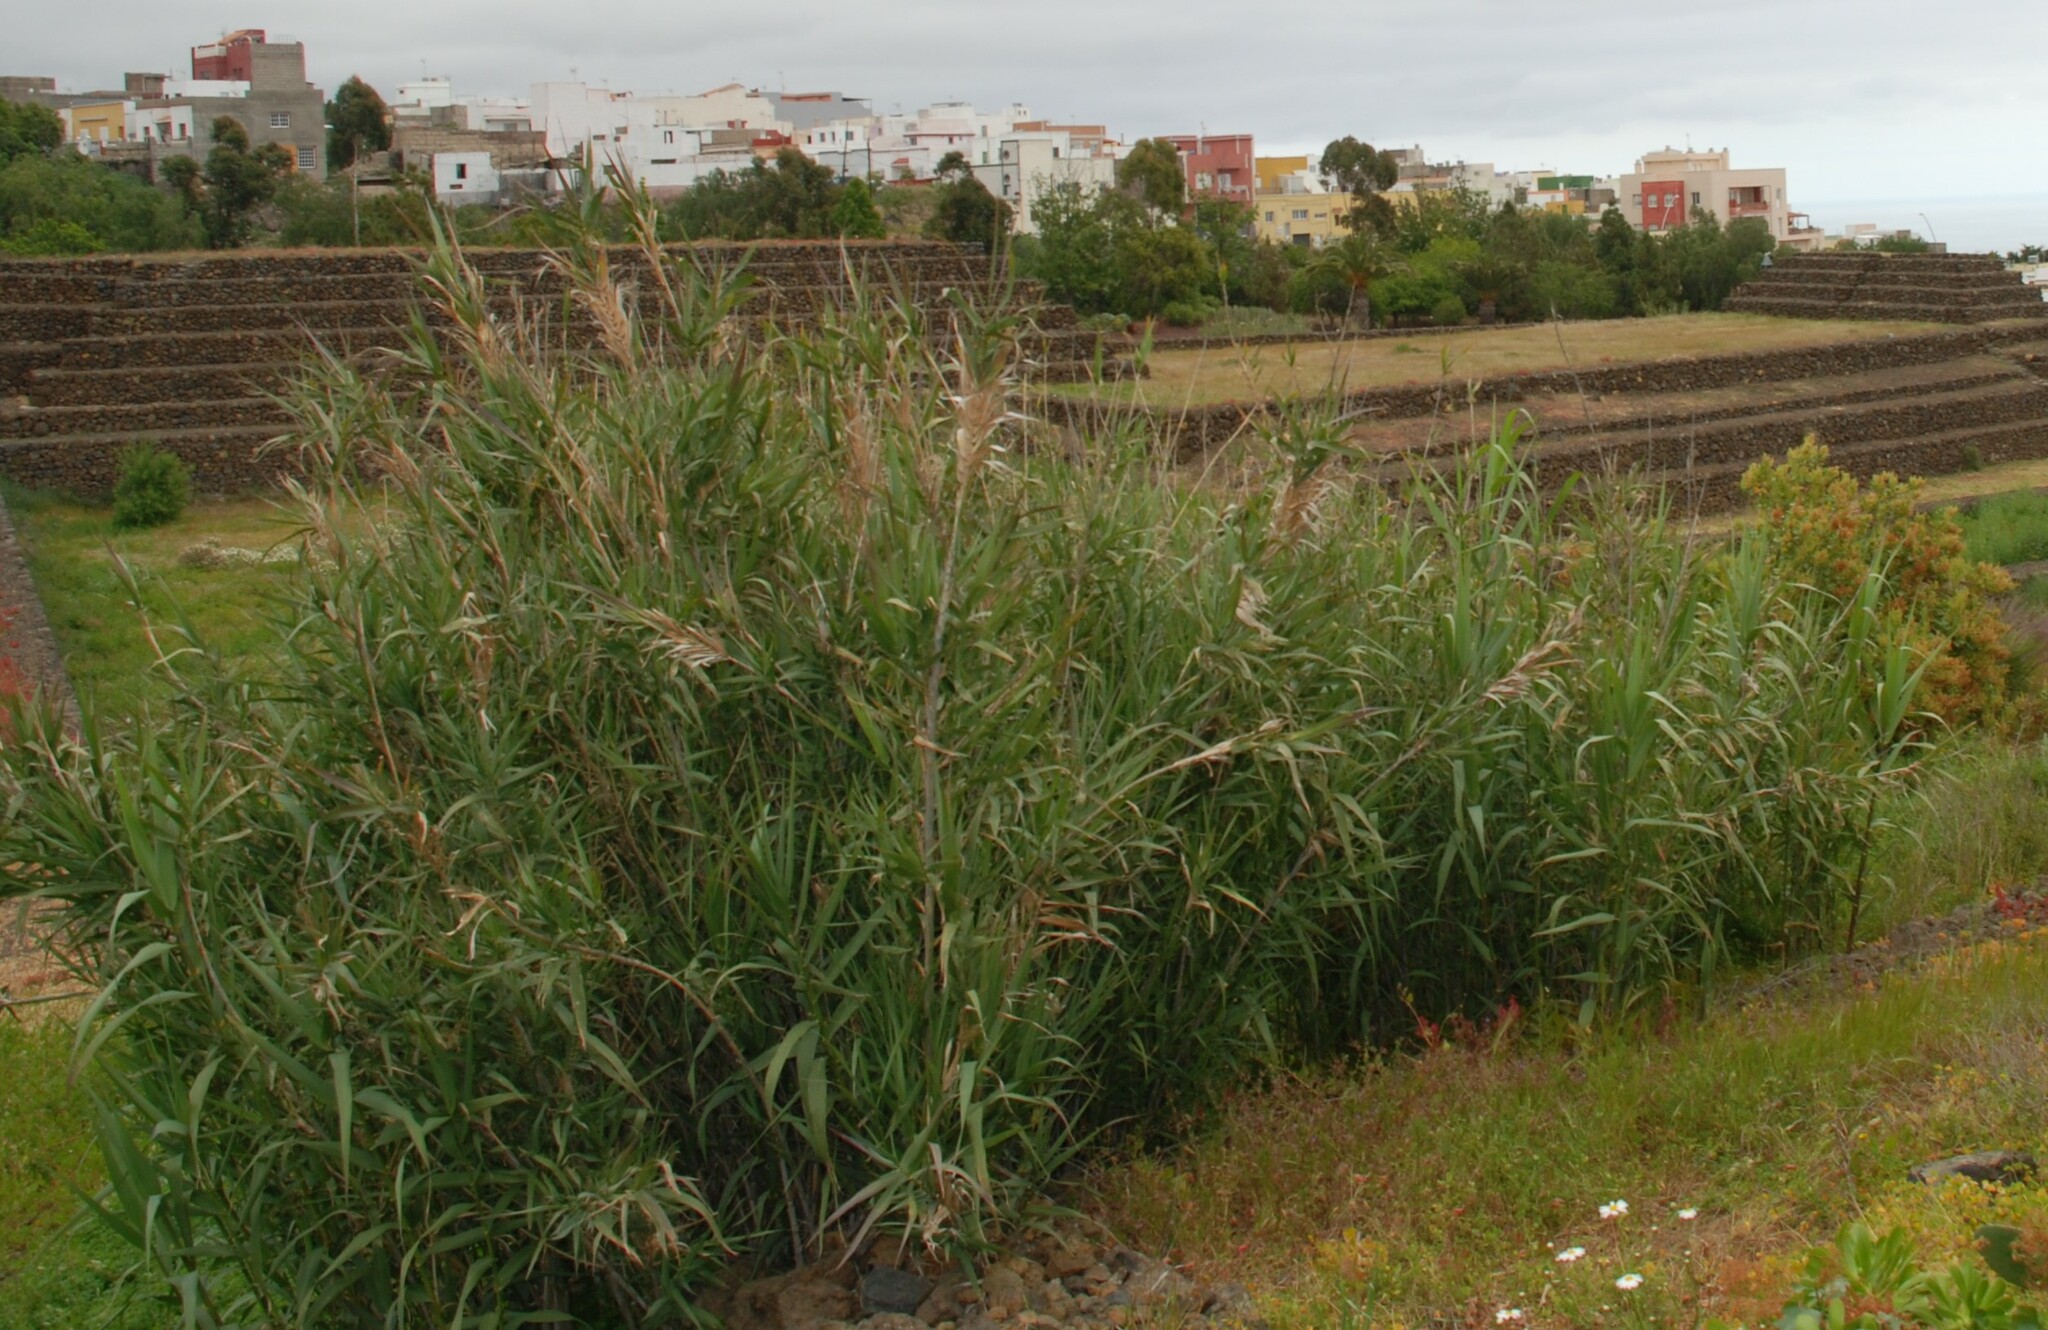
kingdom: Plantae
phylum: Tracheophyta
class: Liliopsida
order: Poales
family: Poaceae
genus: Arundo
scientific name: Arundo donax
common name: Giant reed
